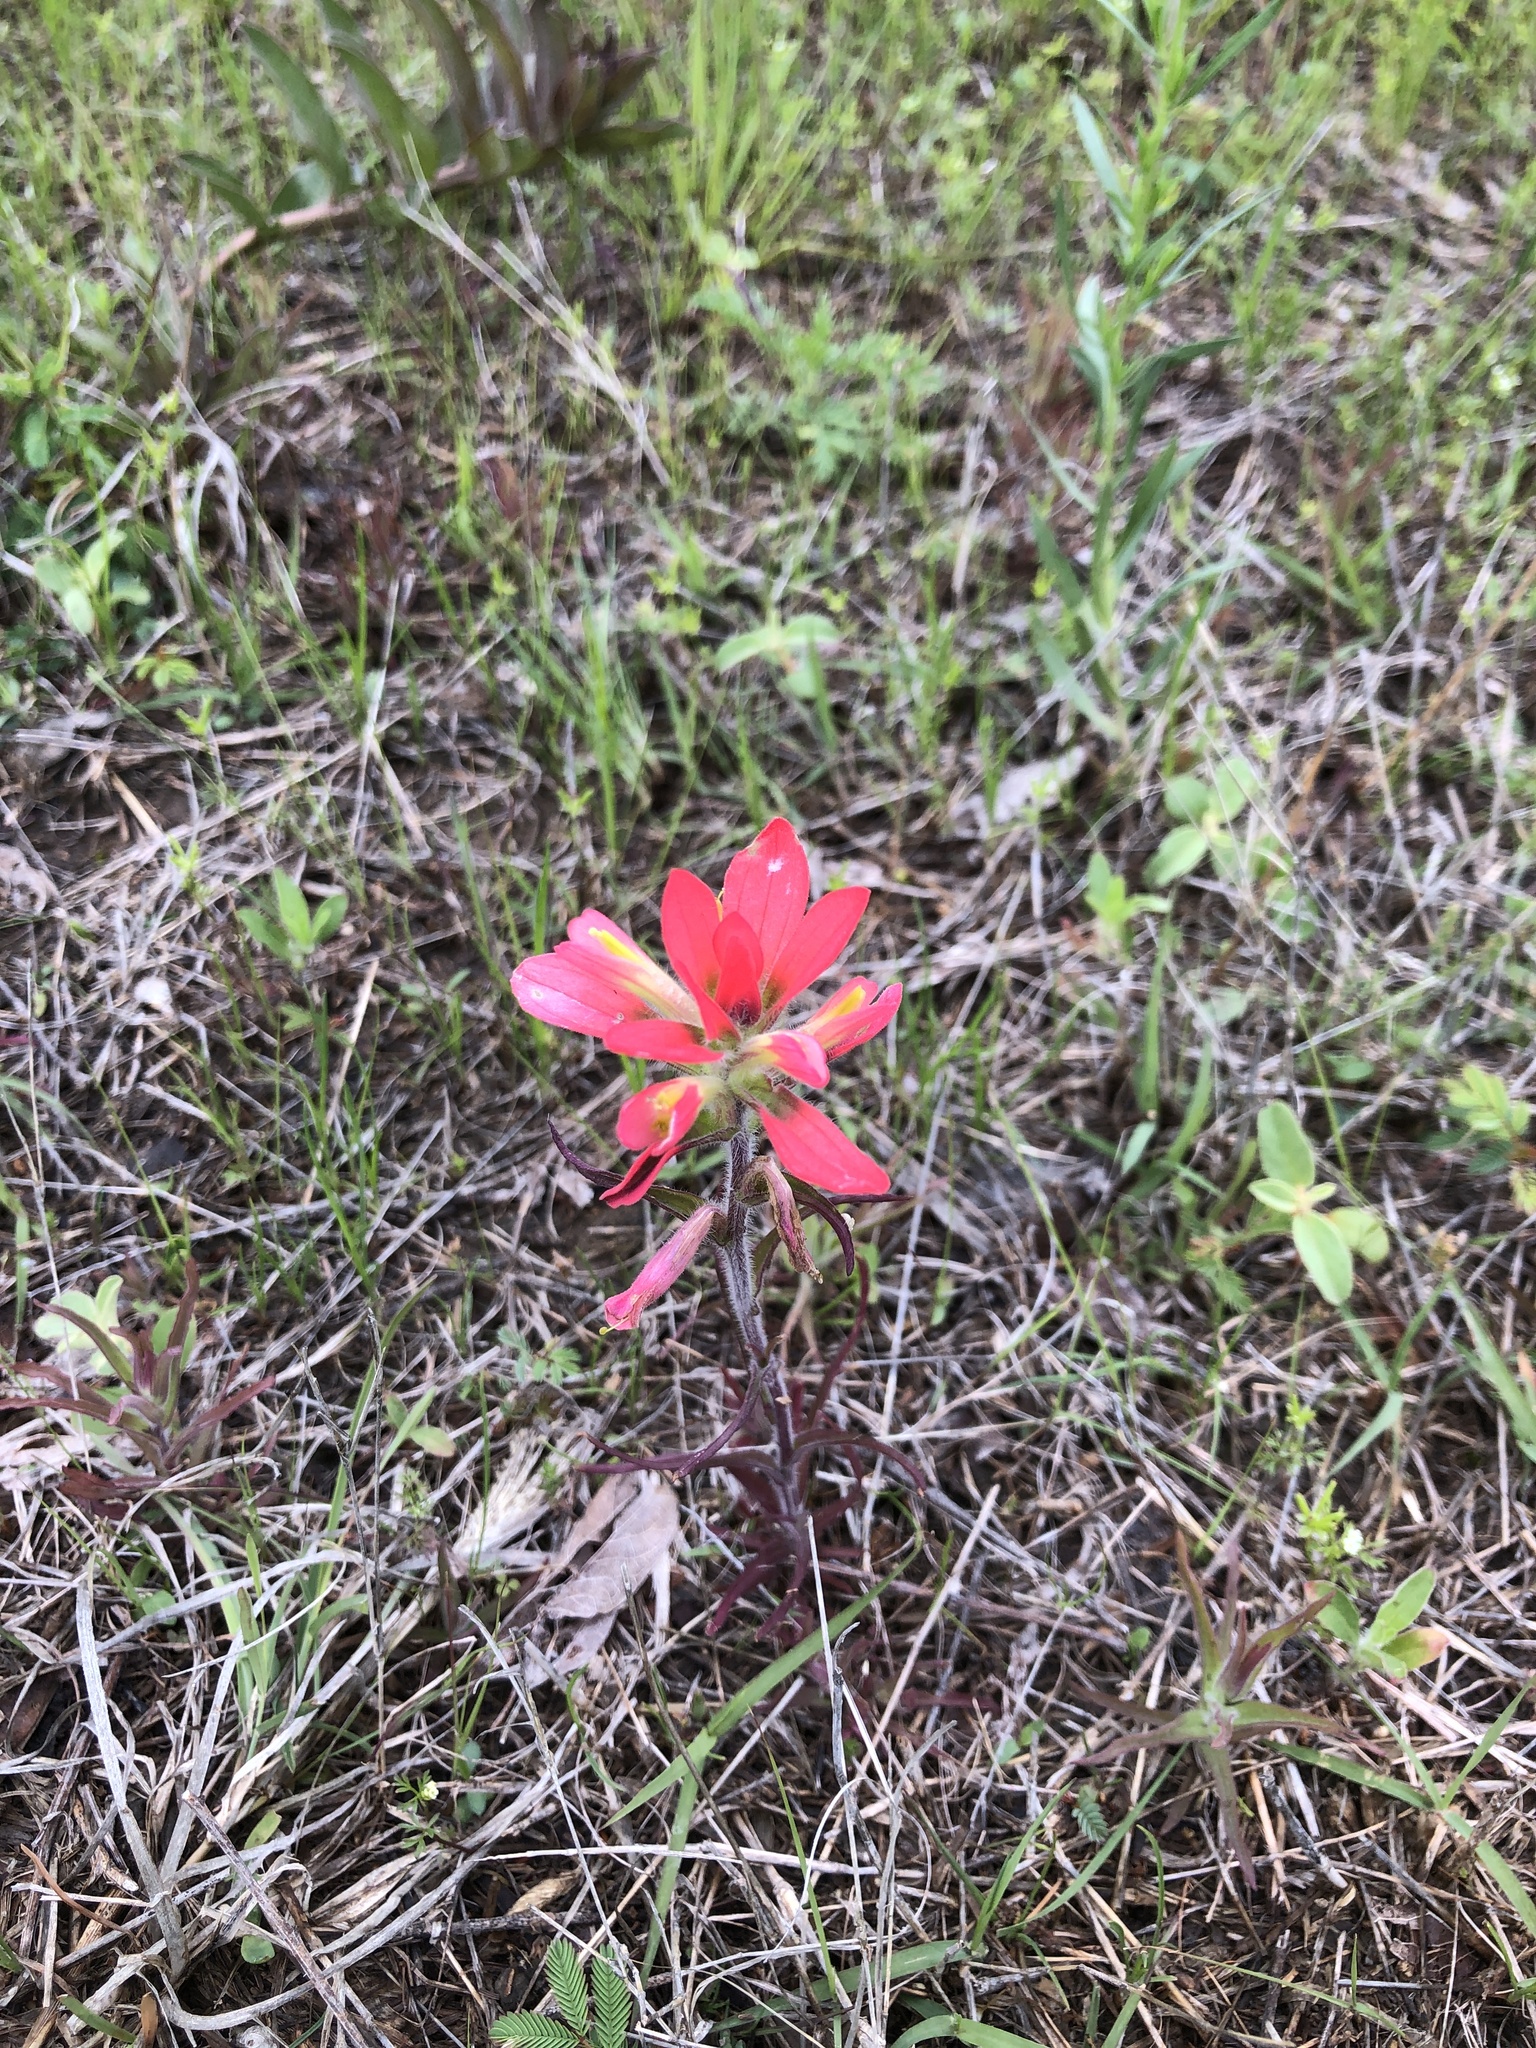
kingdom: Plantae
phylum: Tracheophyta
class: Magnoliopsida
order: Lamiales
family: Orobanchaceae
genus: Castilleja
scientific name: Castilleja indivisa
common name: Texas paintbrush
